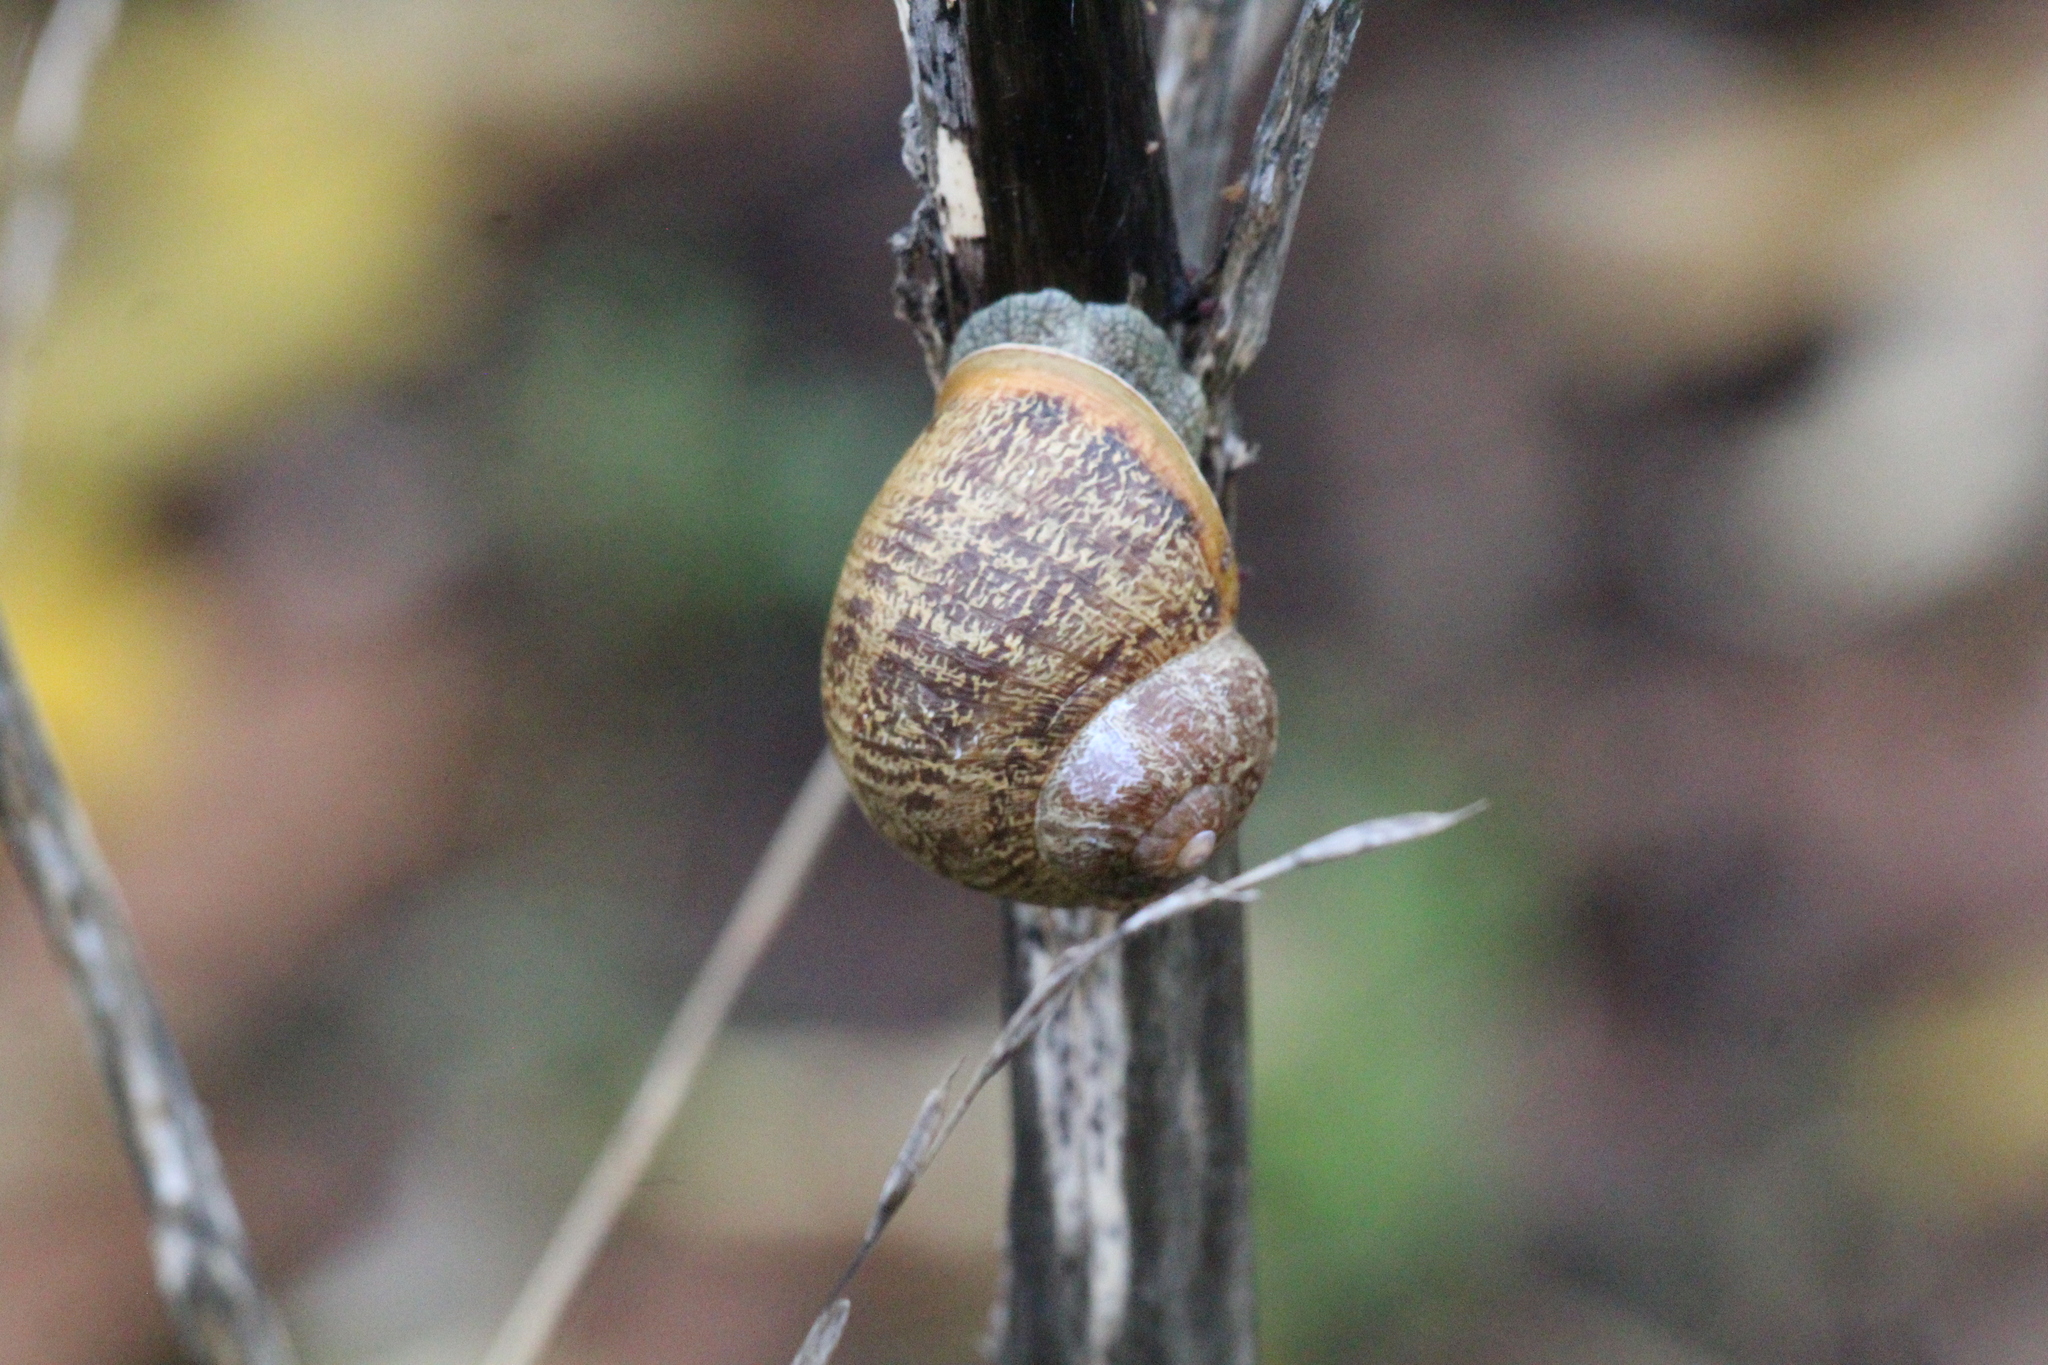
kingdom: Animalia
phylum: Mollusca
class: Gastropoda
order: Stylommatophora
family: Helicidae
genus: Cornu
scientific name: Cornu aspersum
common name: Brown garden snail
